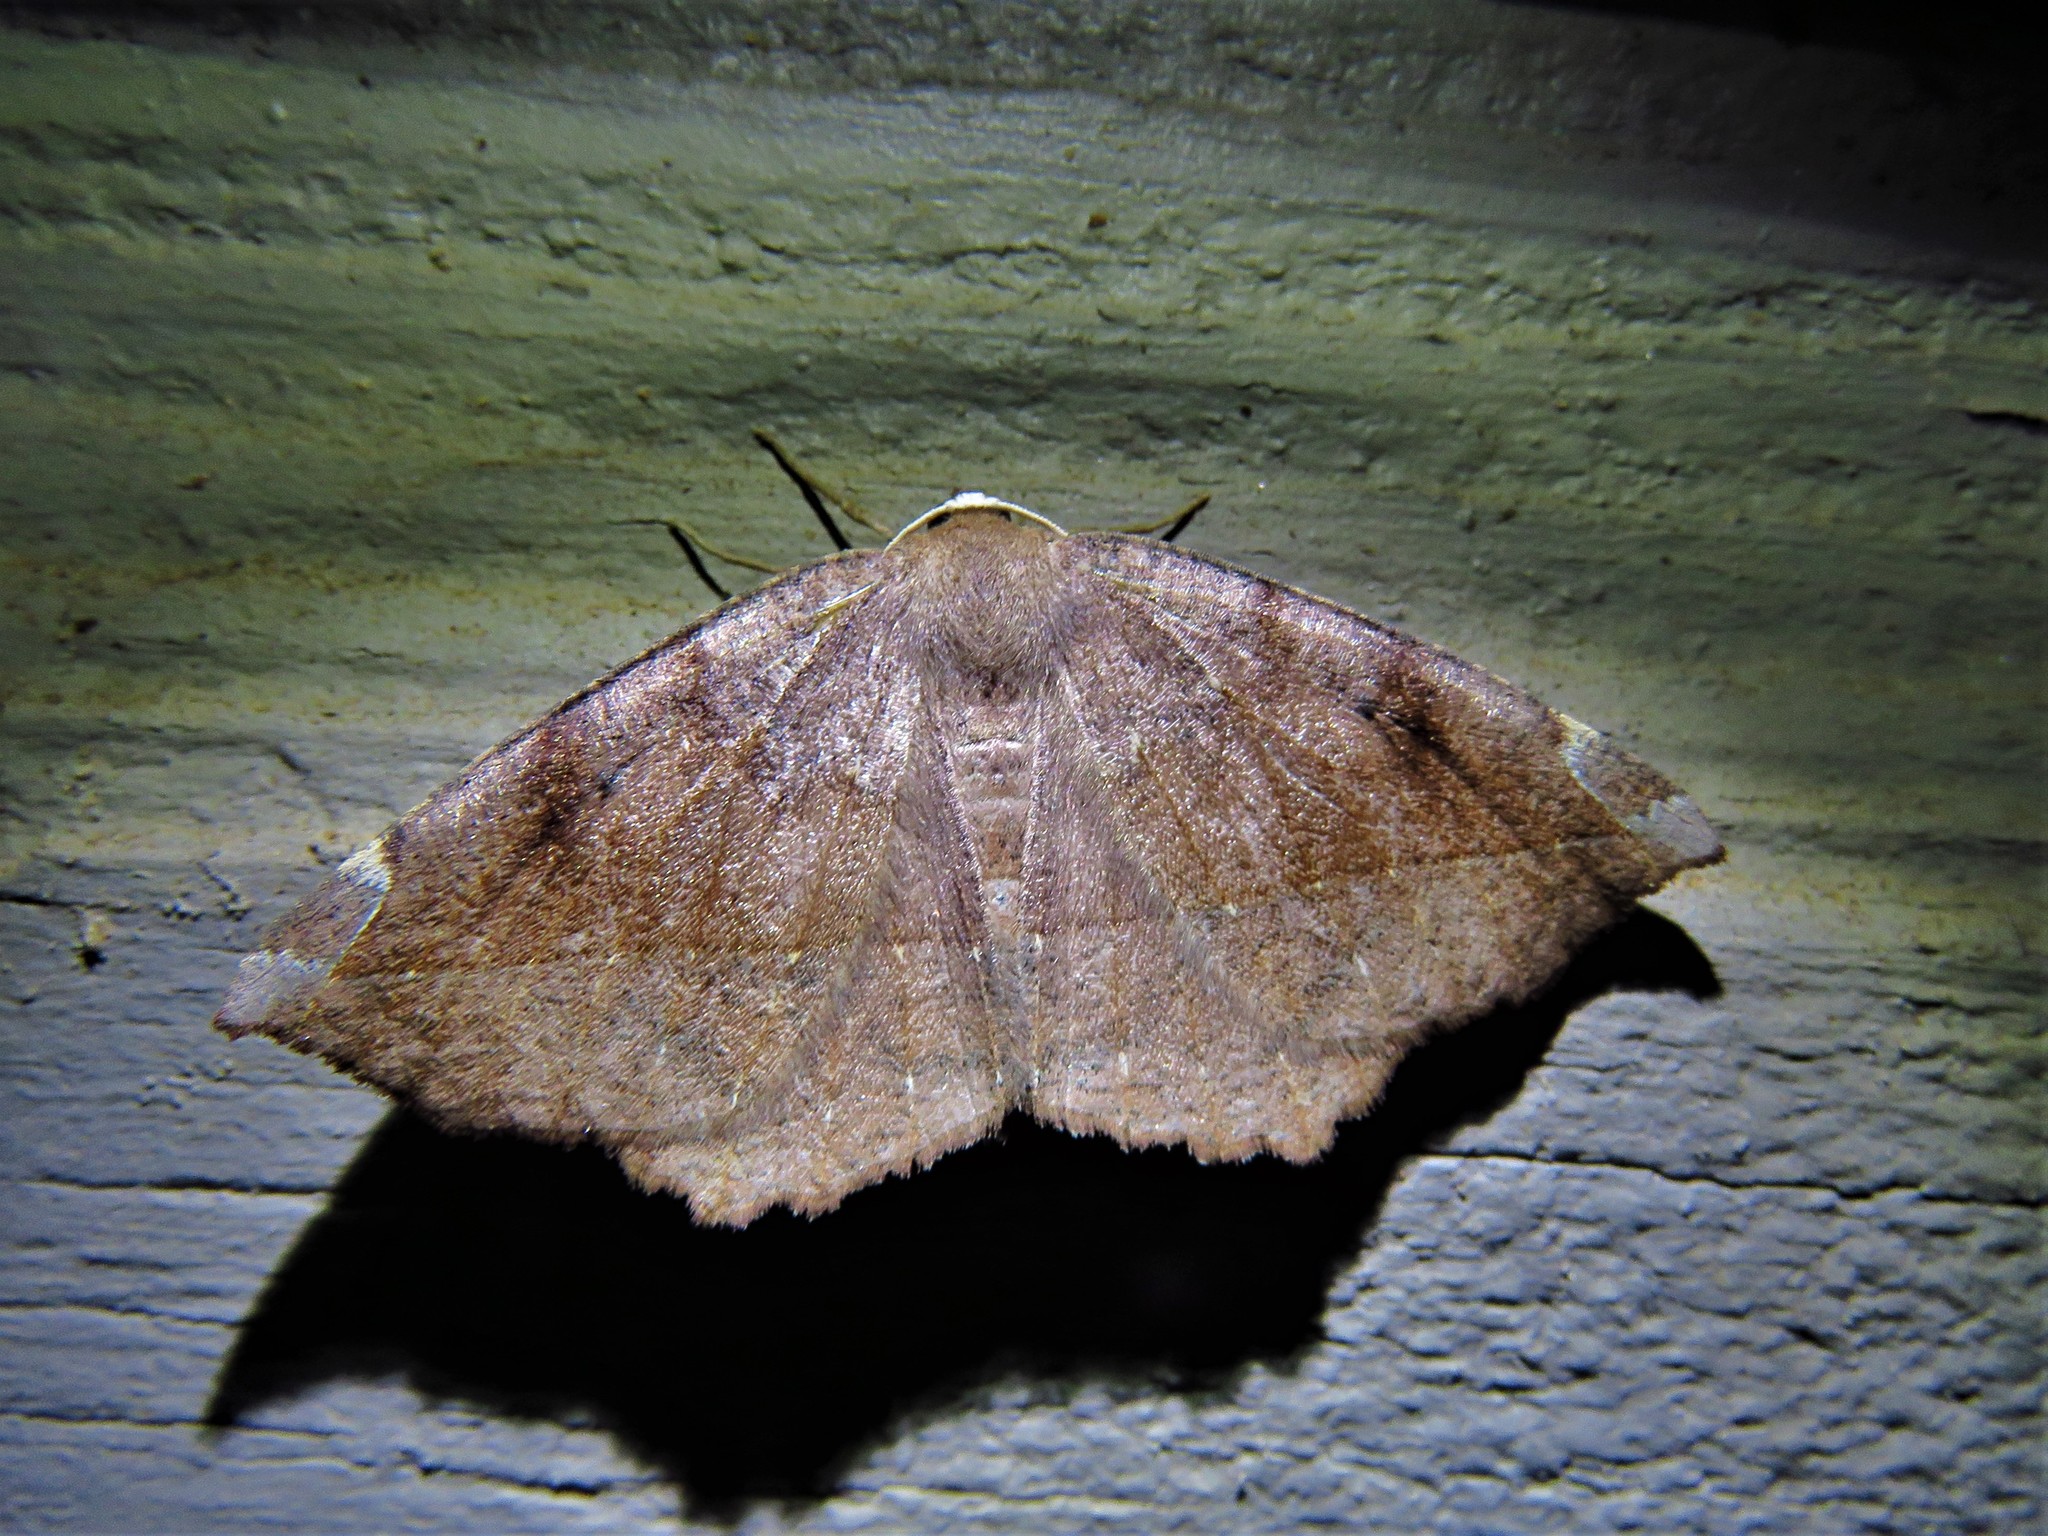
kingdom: Animalia
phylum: Arthropoda
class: Insecta
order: Lepidoptera
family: Geometridae
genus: Eutrapela
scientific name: Eutrapela clemataria
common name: Curved-toothed geometer
